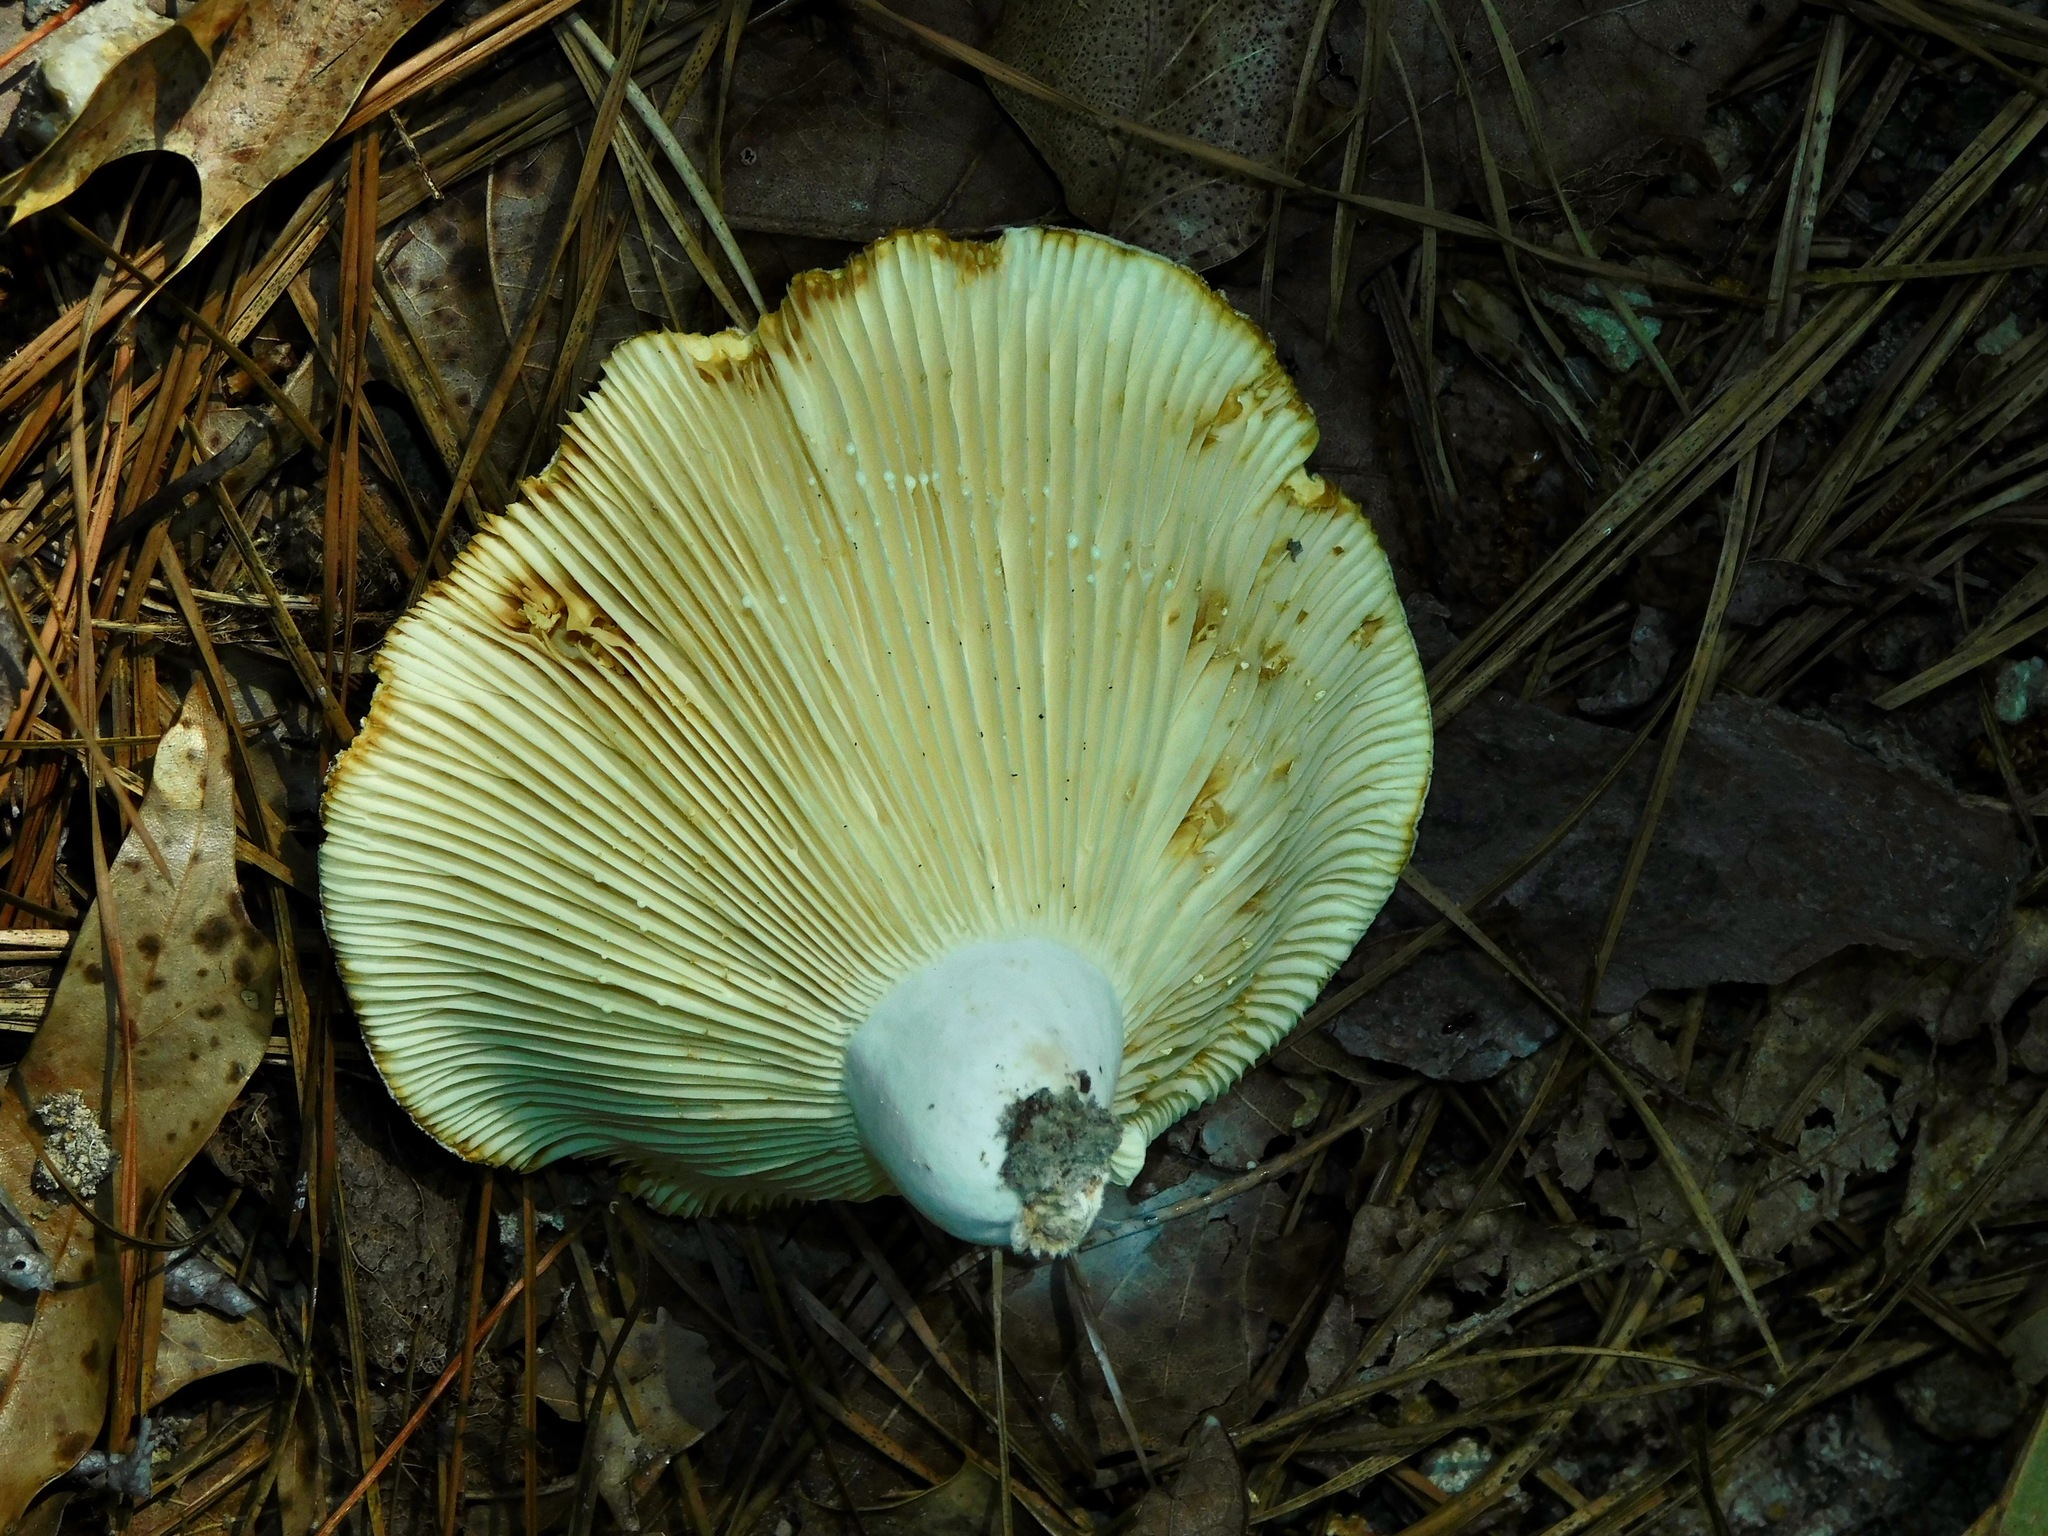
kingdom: Fungi
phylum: Basidiomycota
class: Agaricomycetes
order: Russulales
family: Russulaceae
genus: Lactifluus
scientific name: Lactifluus piperatus
